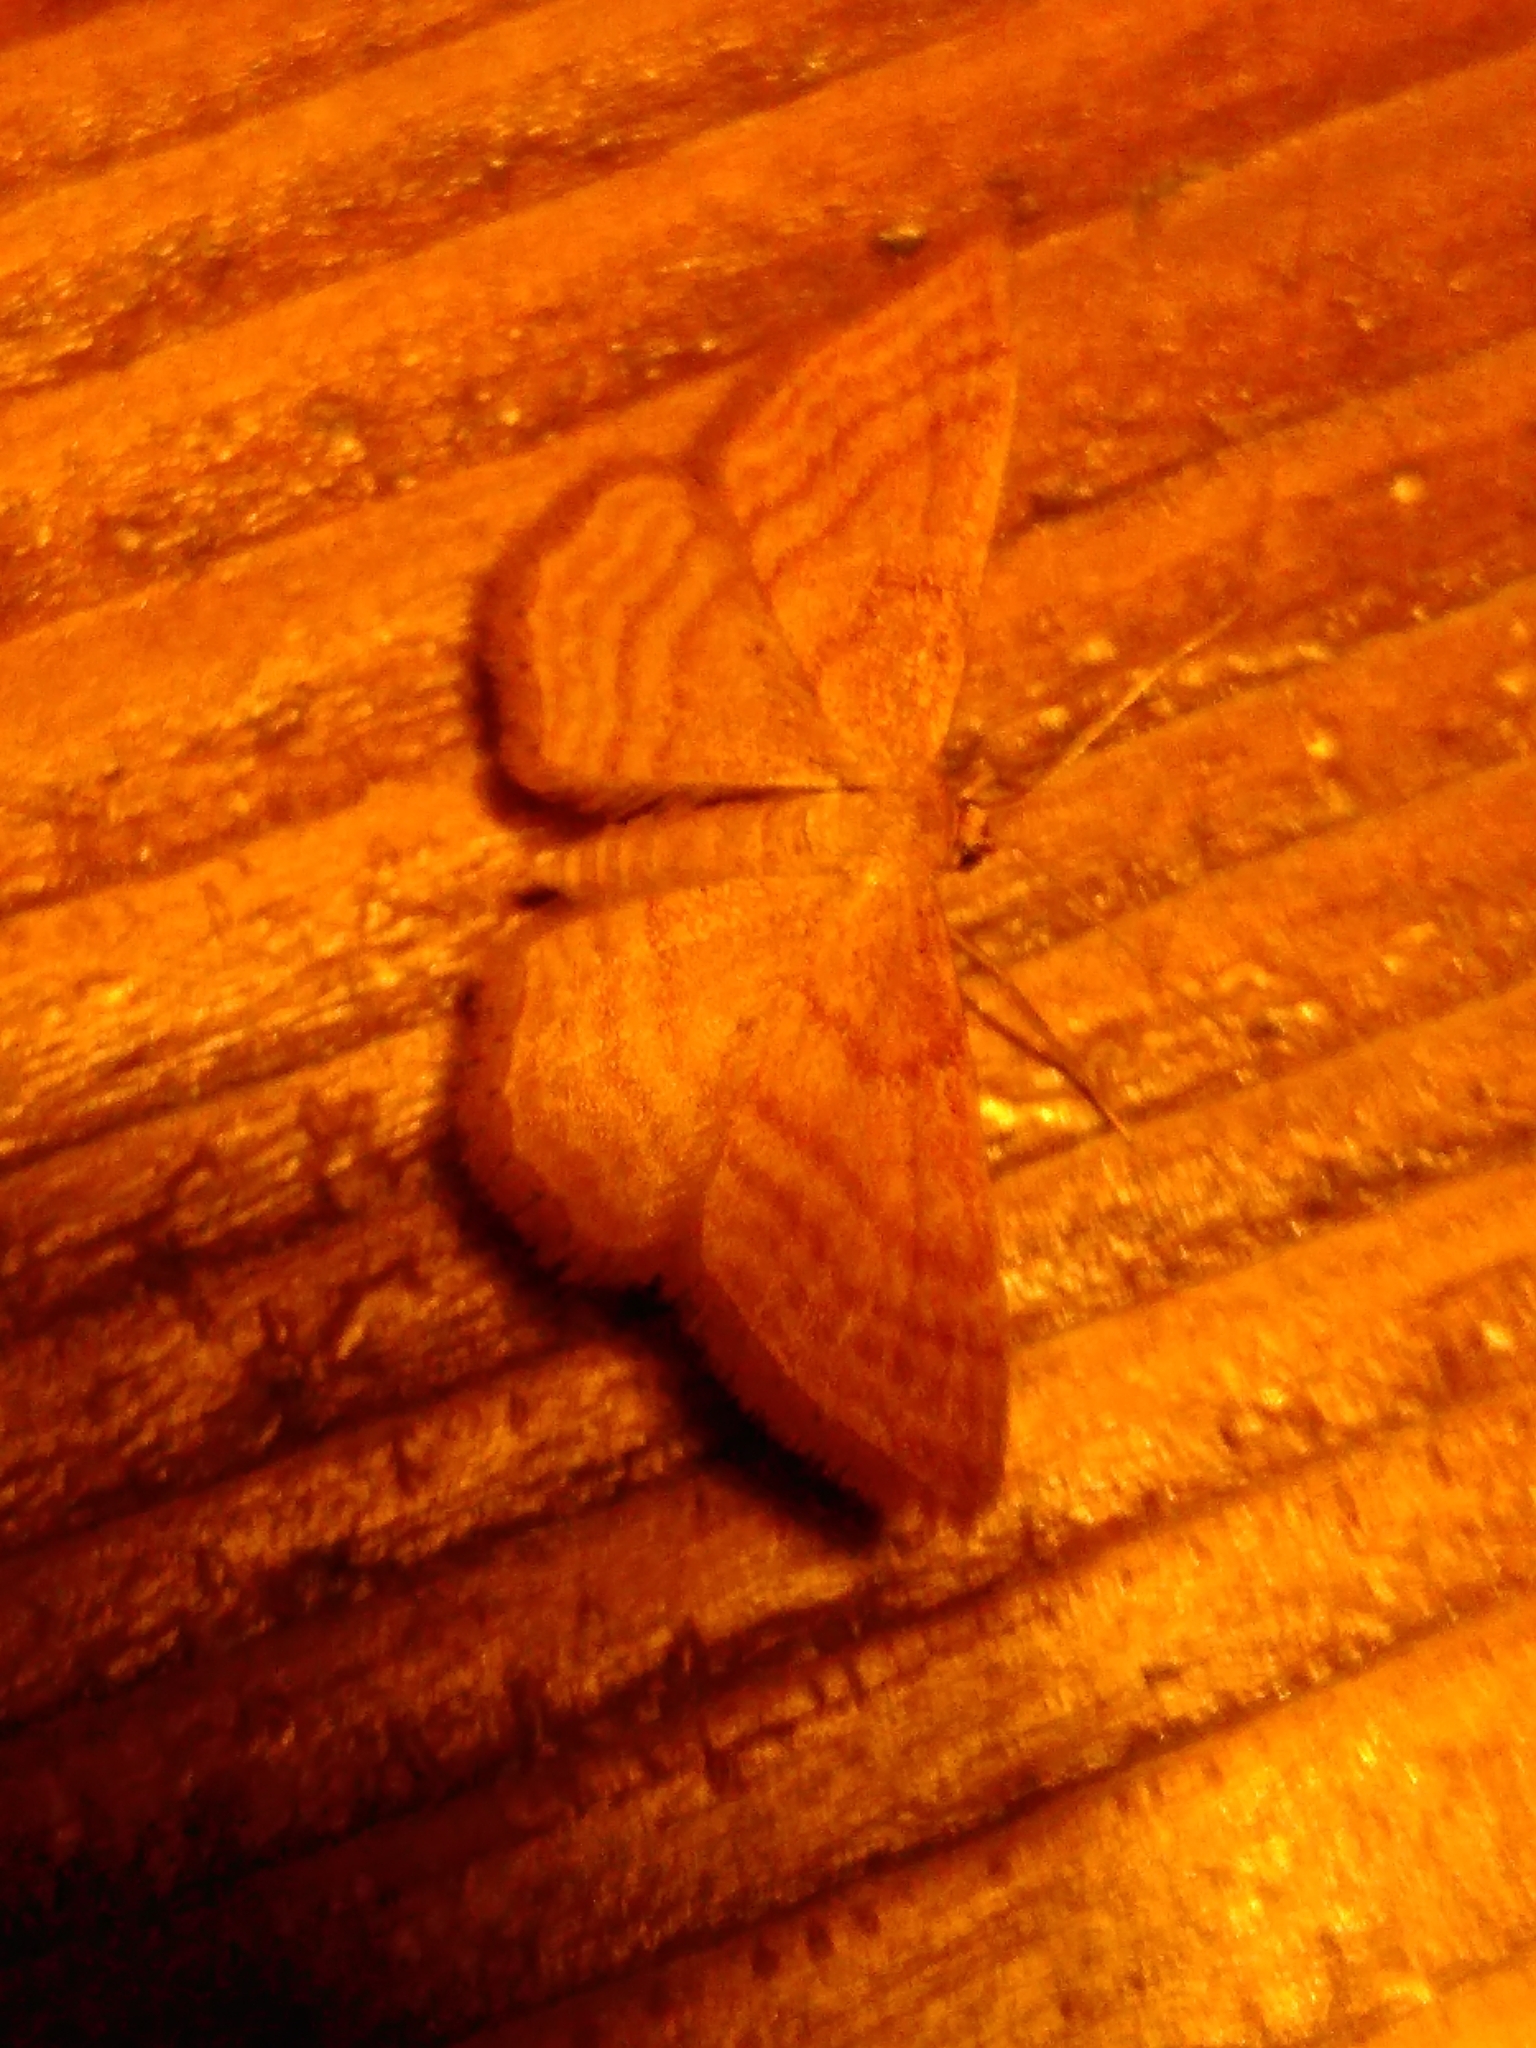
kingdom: Animalia
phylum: Arthropoda
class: Insecta
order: Lepidoptera
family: Geometridae
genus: Idaea
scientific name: Idaea ochrata
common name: Bright wave
